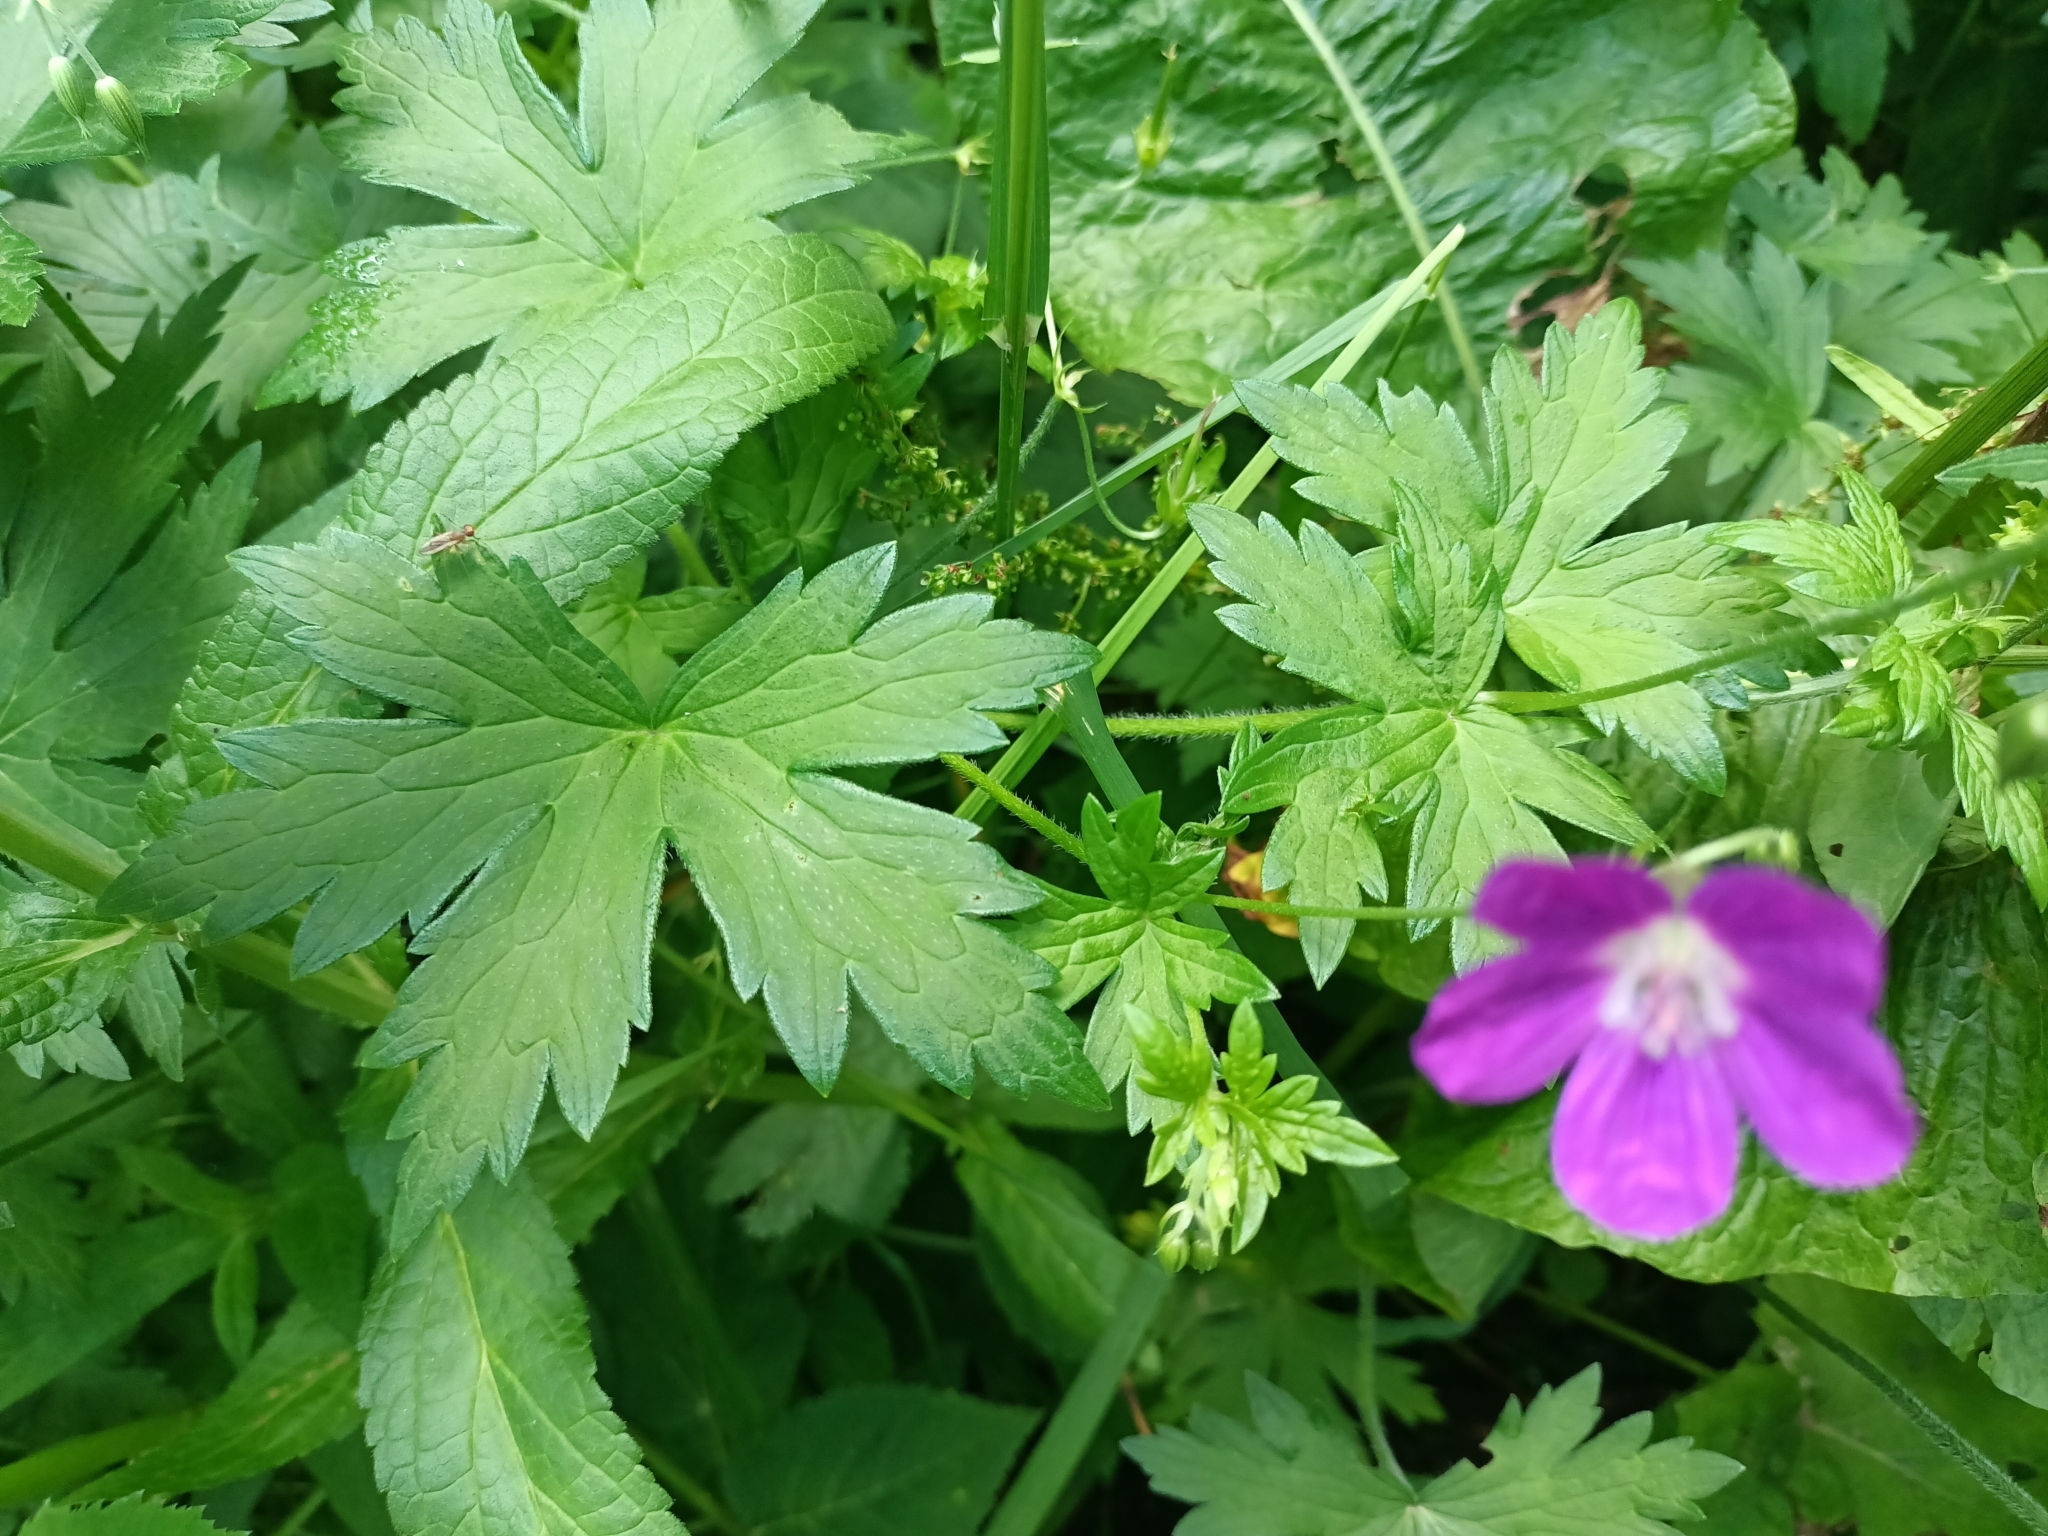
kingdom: Plantae
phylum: Tracheophyta
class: Magnoliopsida
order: Geraniales
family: Geraniaceae
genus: Geranium
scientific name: Geranium palustre
